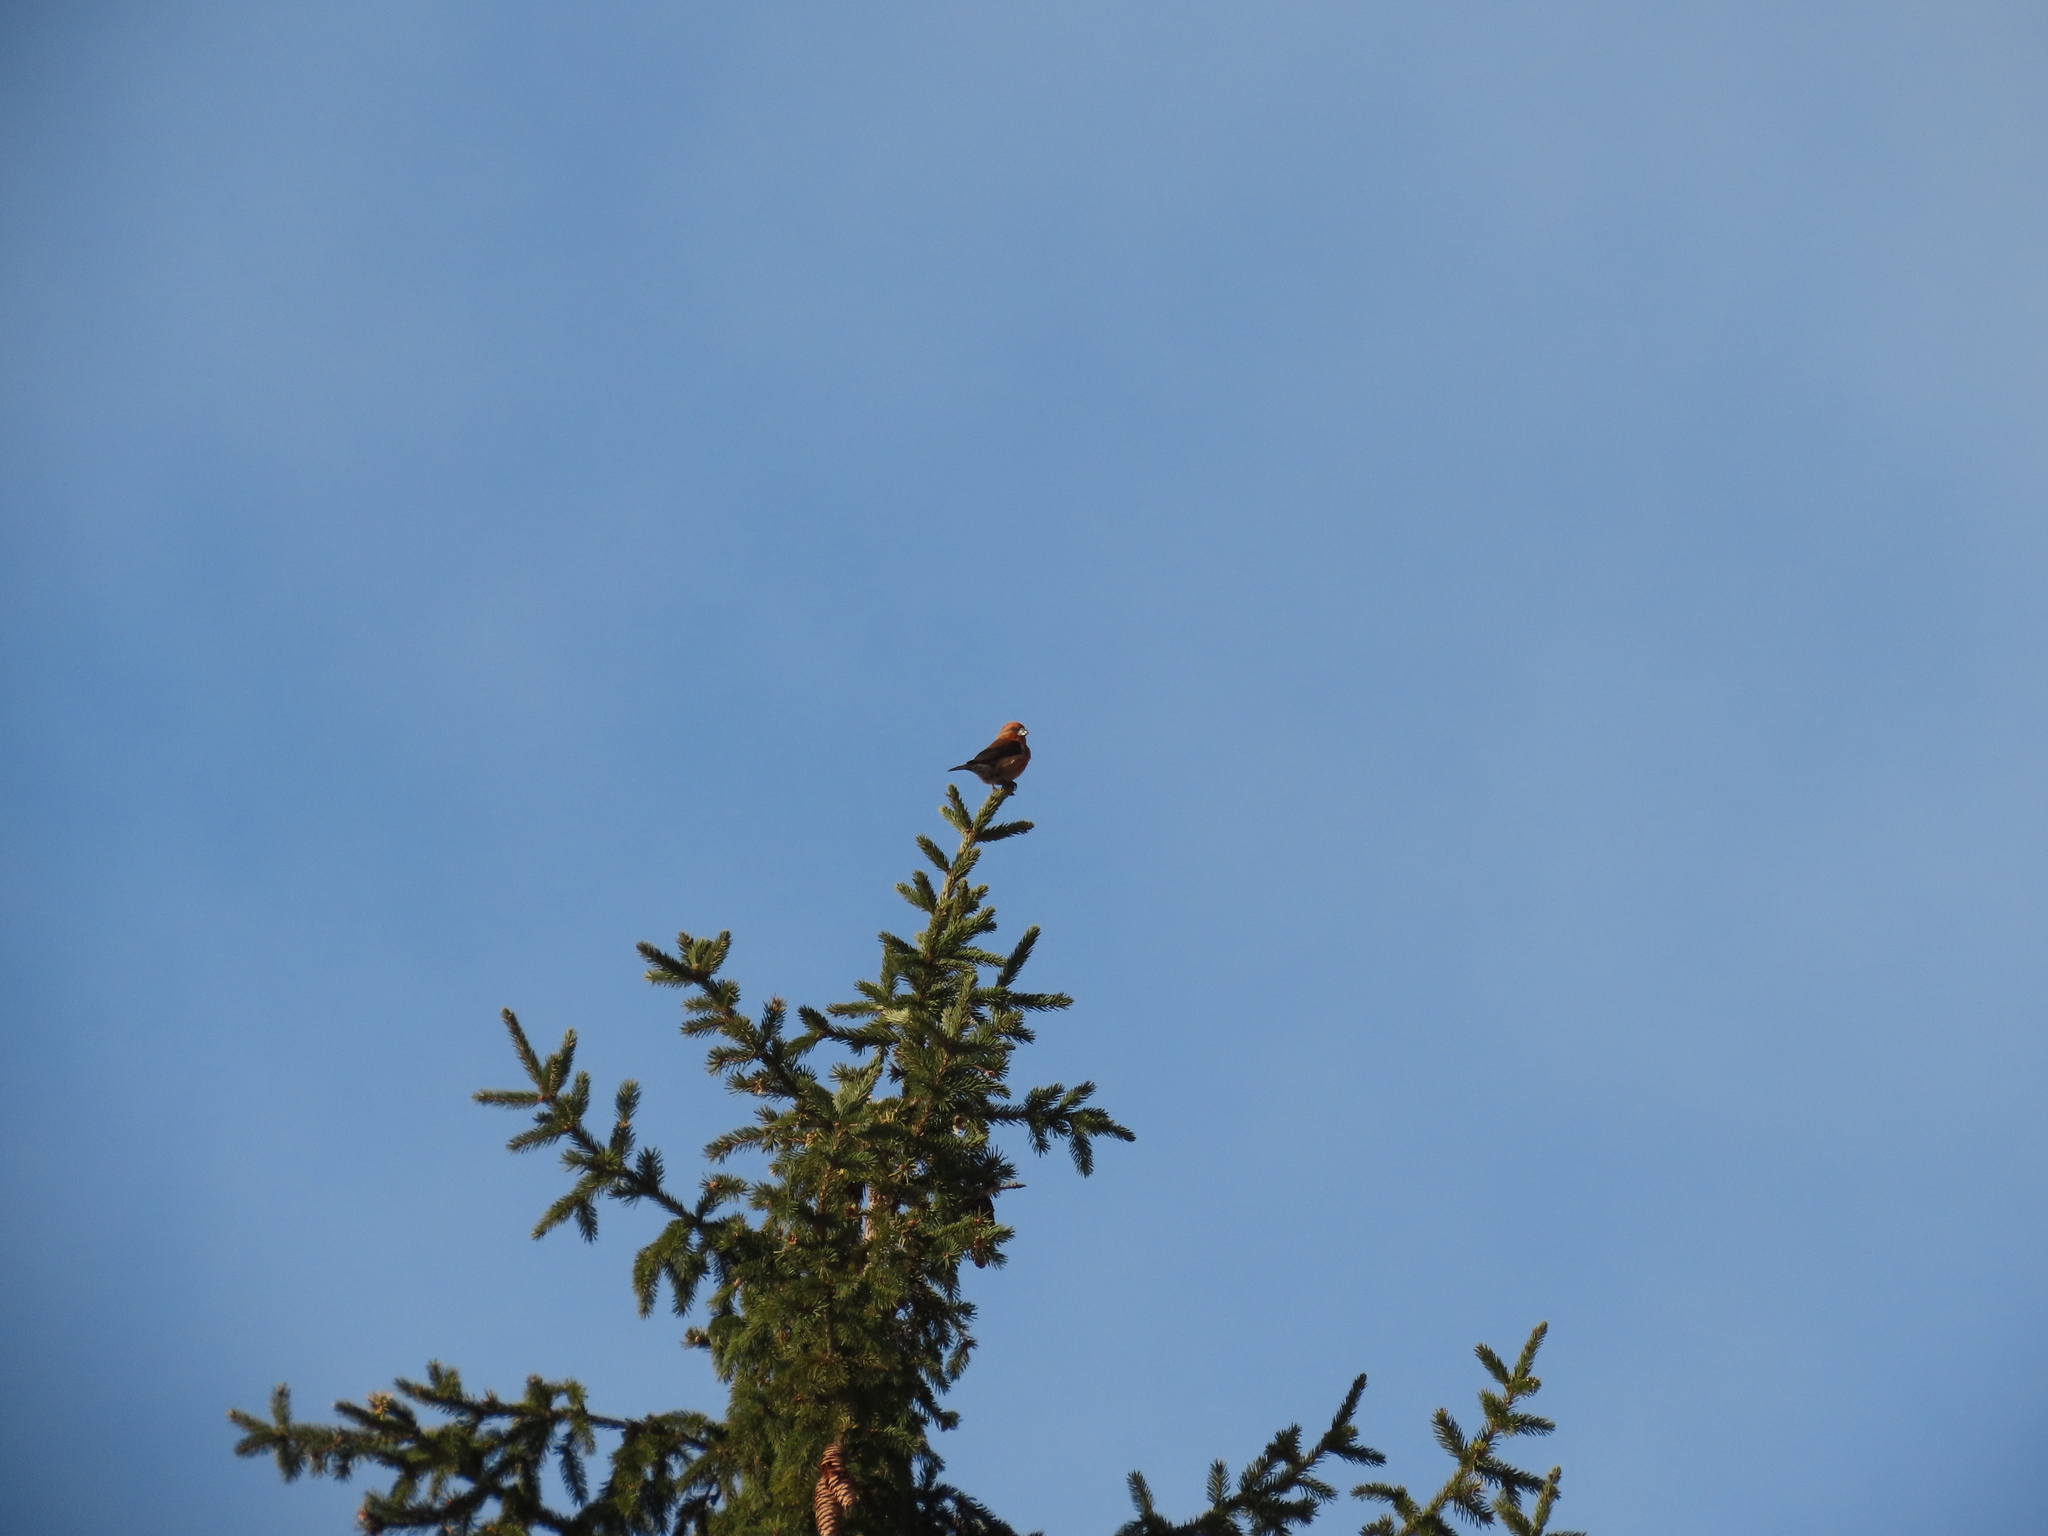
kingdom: Animalia
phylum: Chordata
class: Aves
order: Passeriformes
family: Fringillidae
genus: Loxia
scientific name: Loxia curvirostra
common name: Red crossbill
